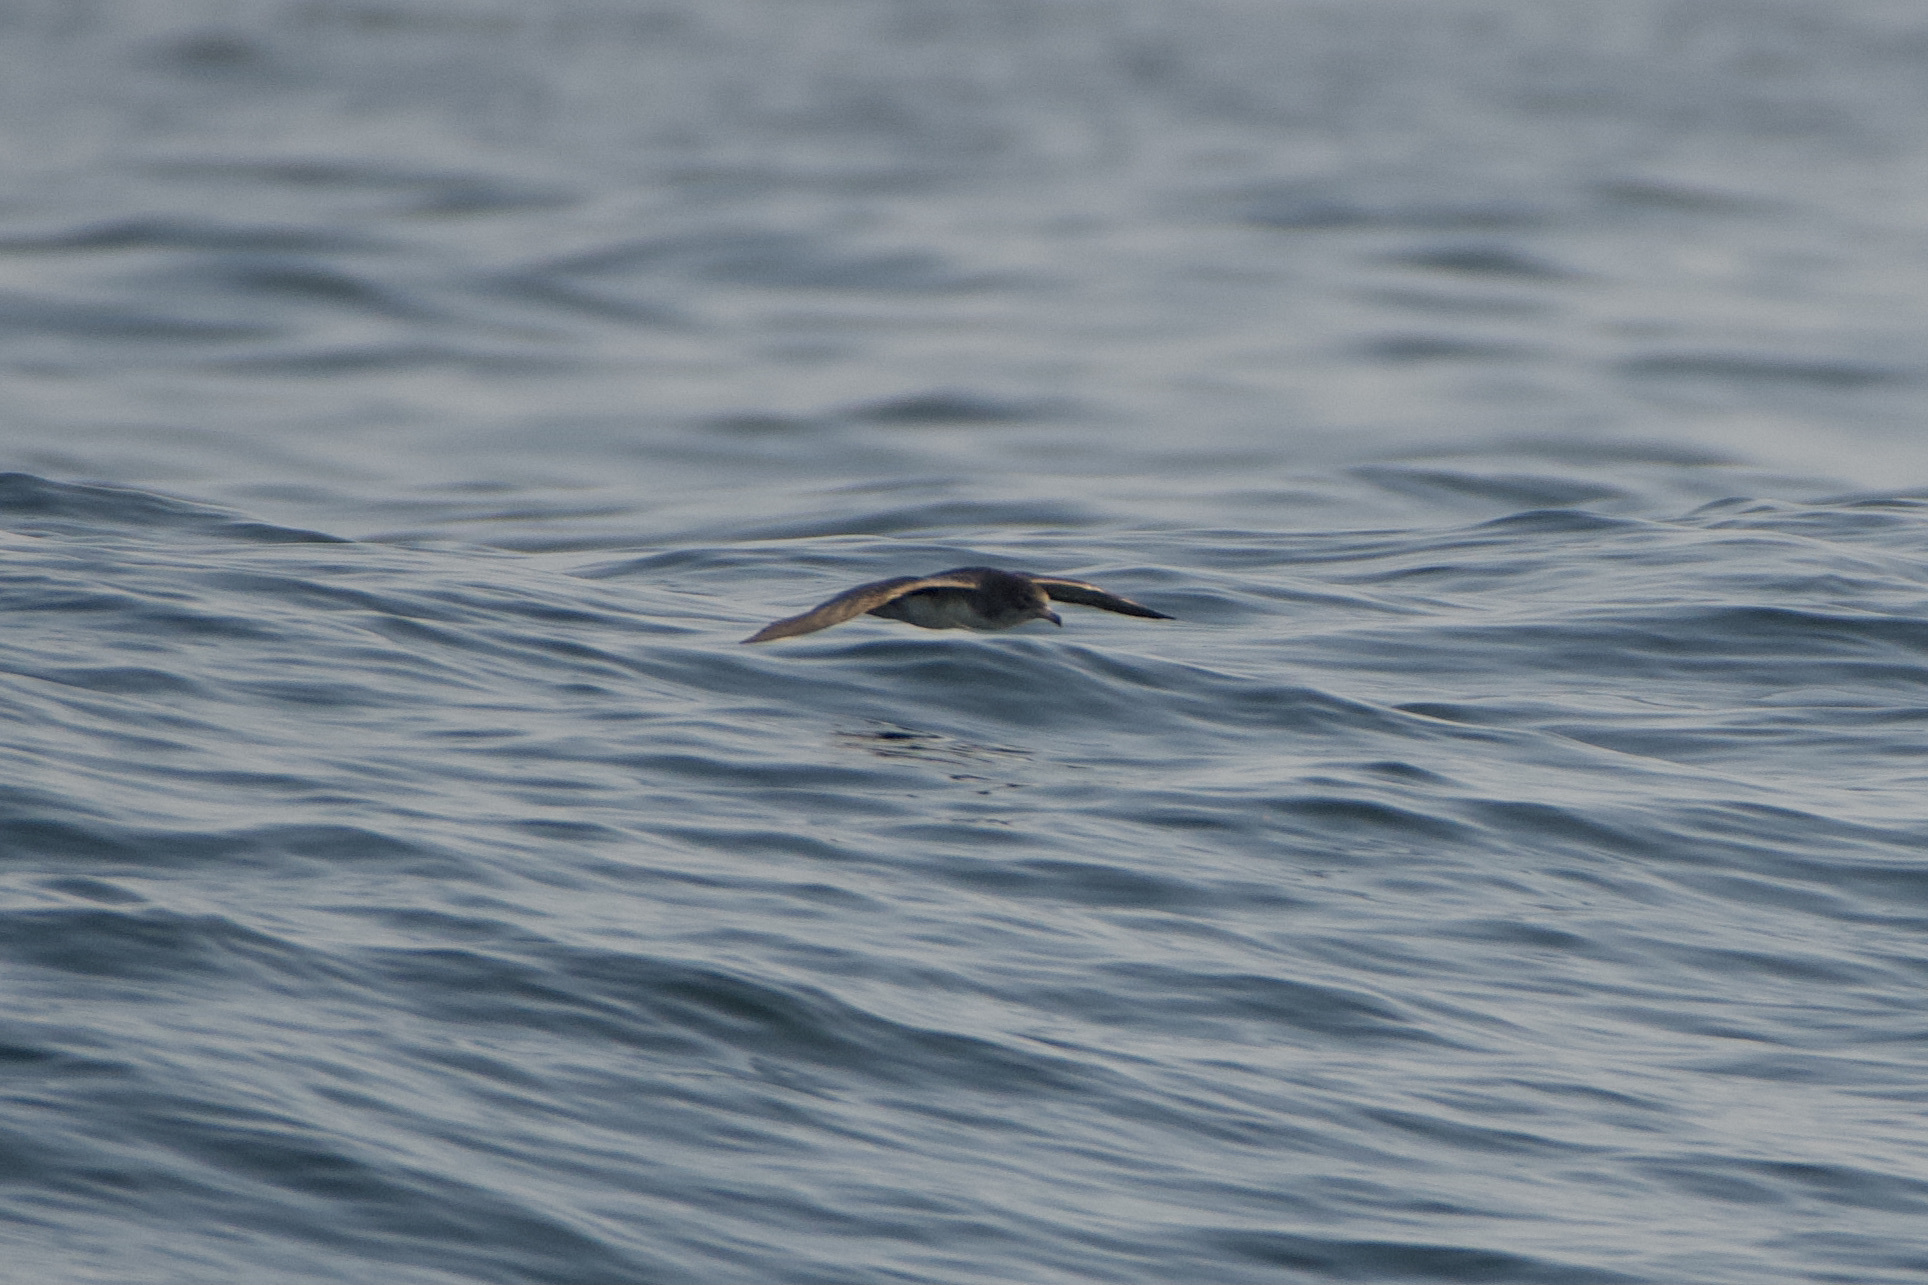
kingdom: Animalia
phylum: Chordata
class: Aves
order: Procellariiformes
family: Procellariidae
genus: Puffinus
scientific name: Puffinus creatopus
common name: Pink-footed shearwater
